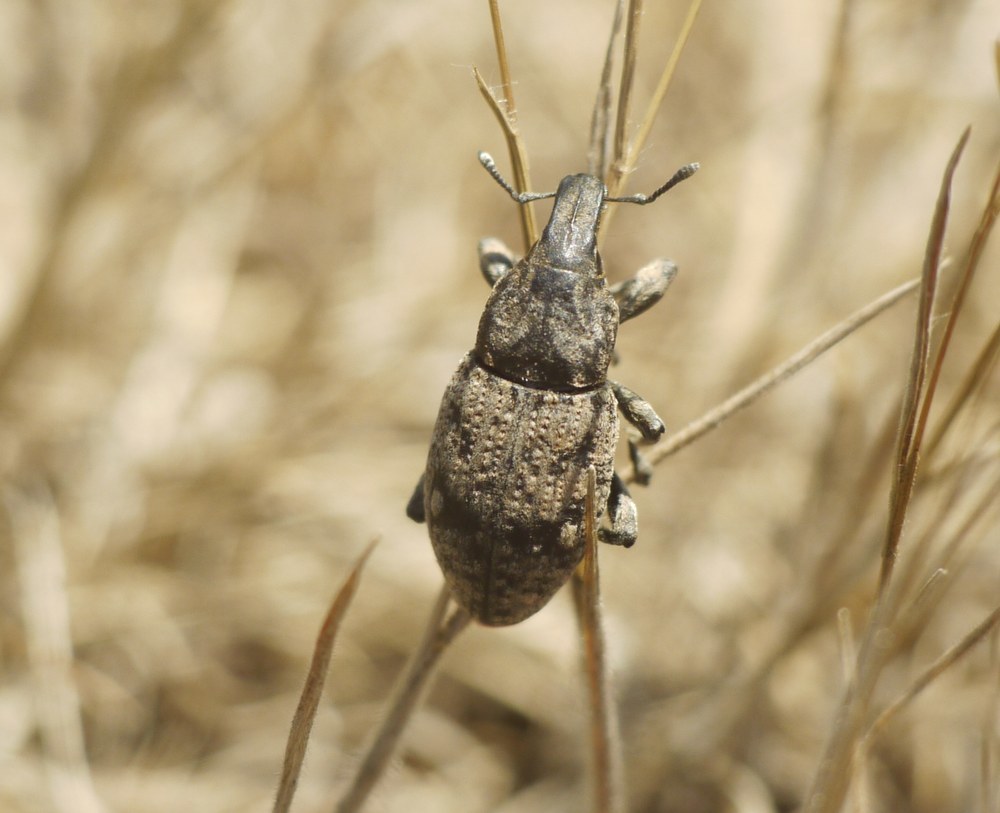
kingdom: Animalia
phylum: Arthropoda
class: Insecta
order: Coleoptera
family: Curculionidae
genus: Leucophyes
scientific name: Leucophyes pedestris
